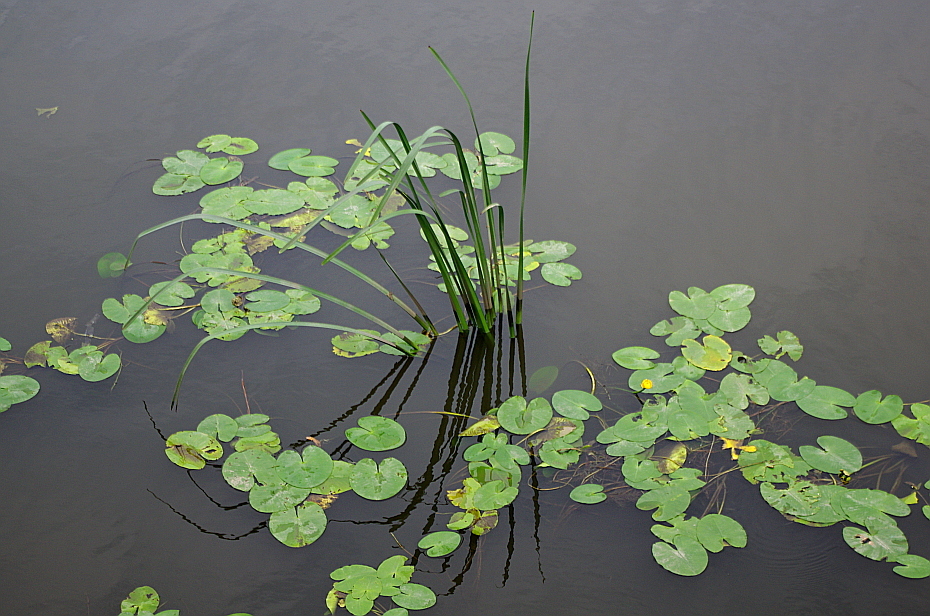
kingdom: Plantae
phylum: Tracheophyta
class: Magnoliopsida
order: Nymphaeales
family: Nymphaeaceae
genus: Nuphar
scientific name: Nuphar lutea
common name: Yellow water-lily
